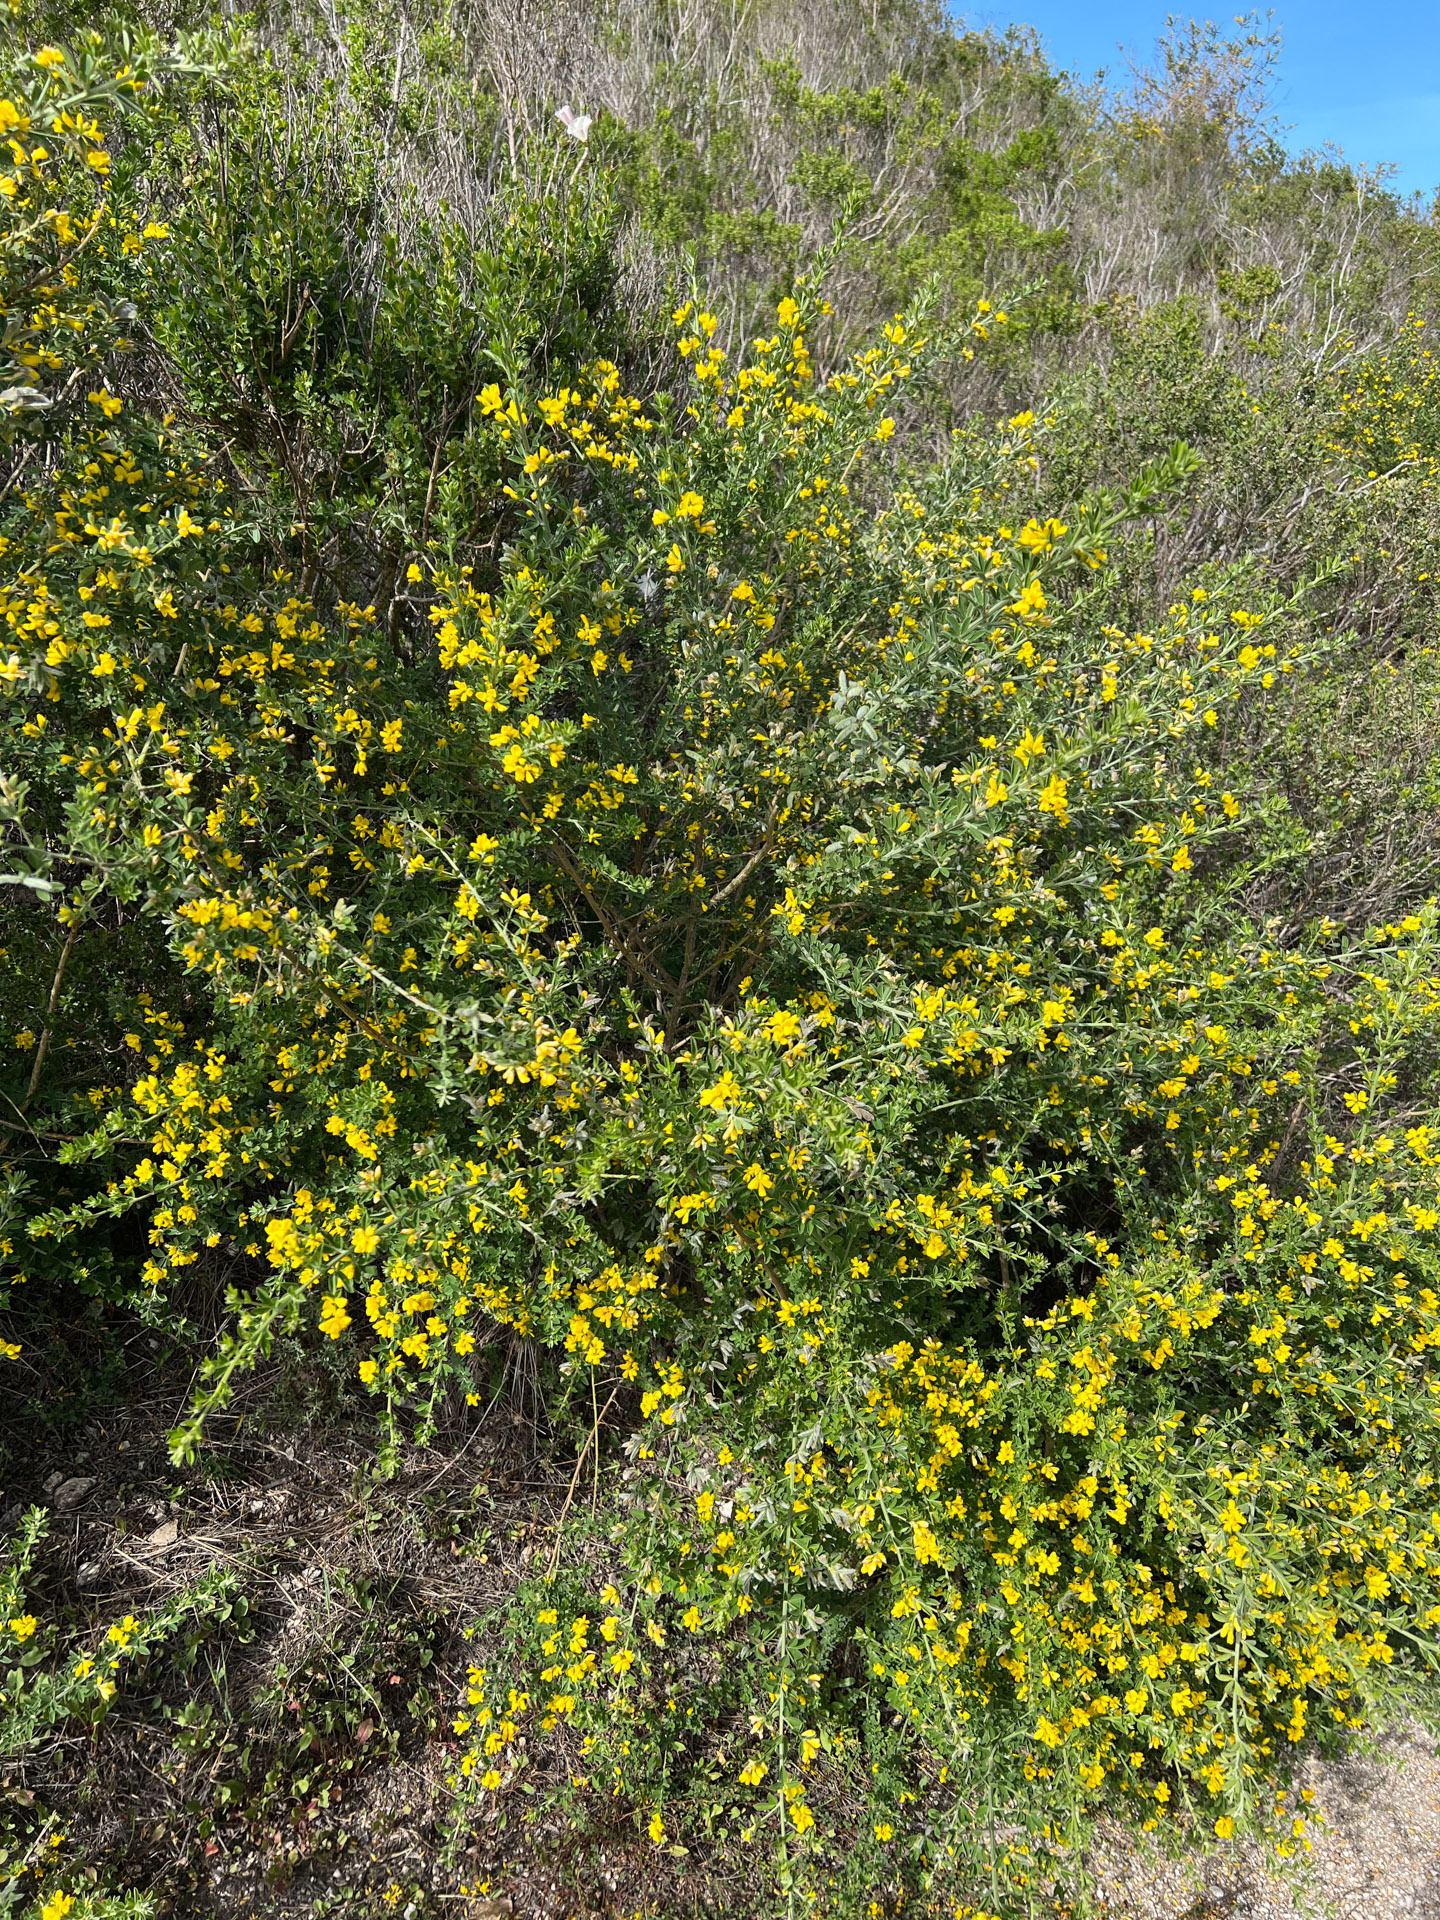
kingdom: Plantae
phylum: Tracheophyta
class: Magnoliopsida
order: Fabales
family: Fabaceae
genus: Genista
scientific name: Genista monspessulana
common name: Montpellier broom
